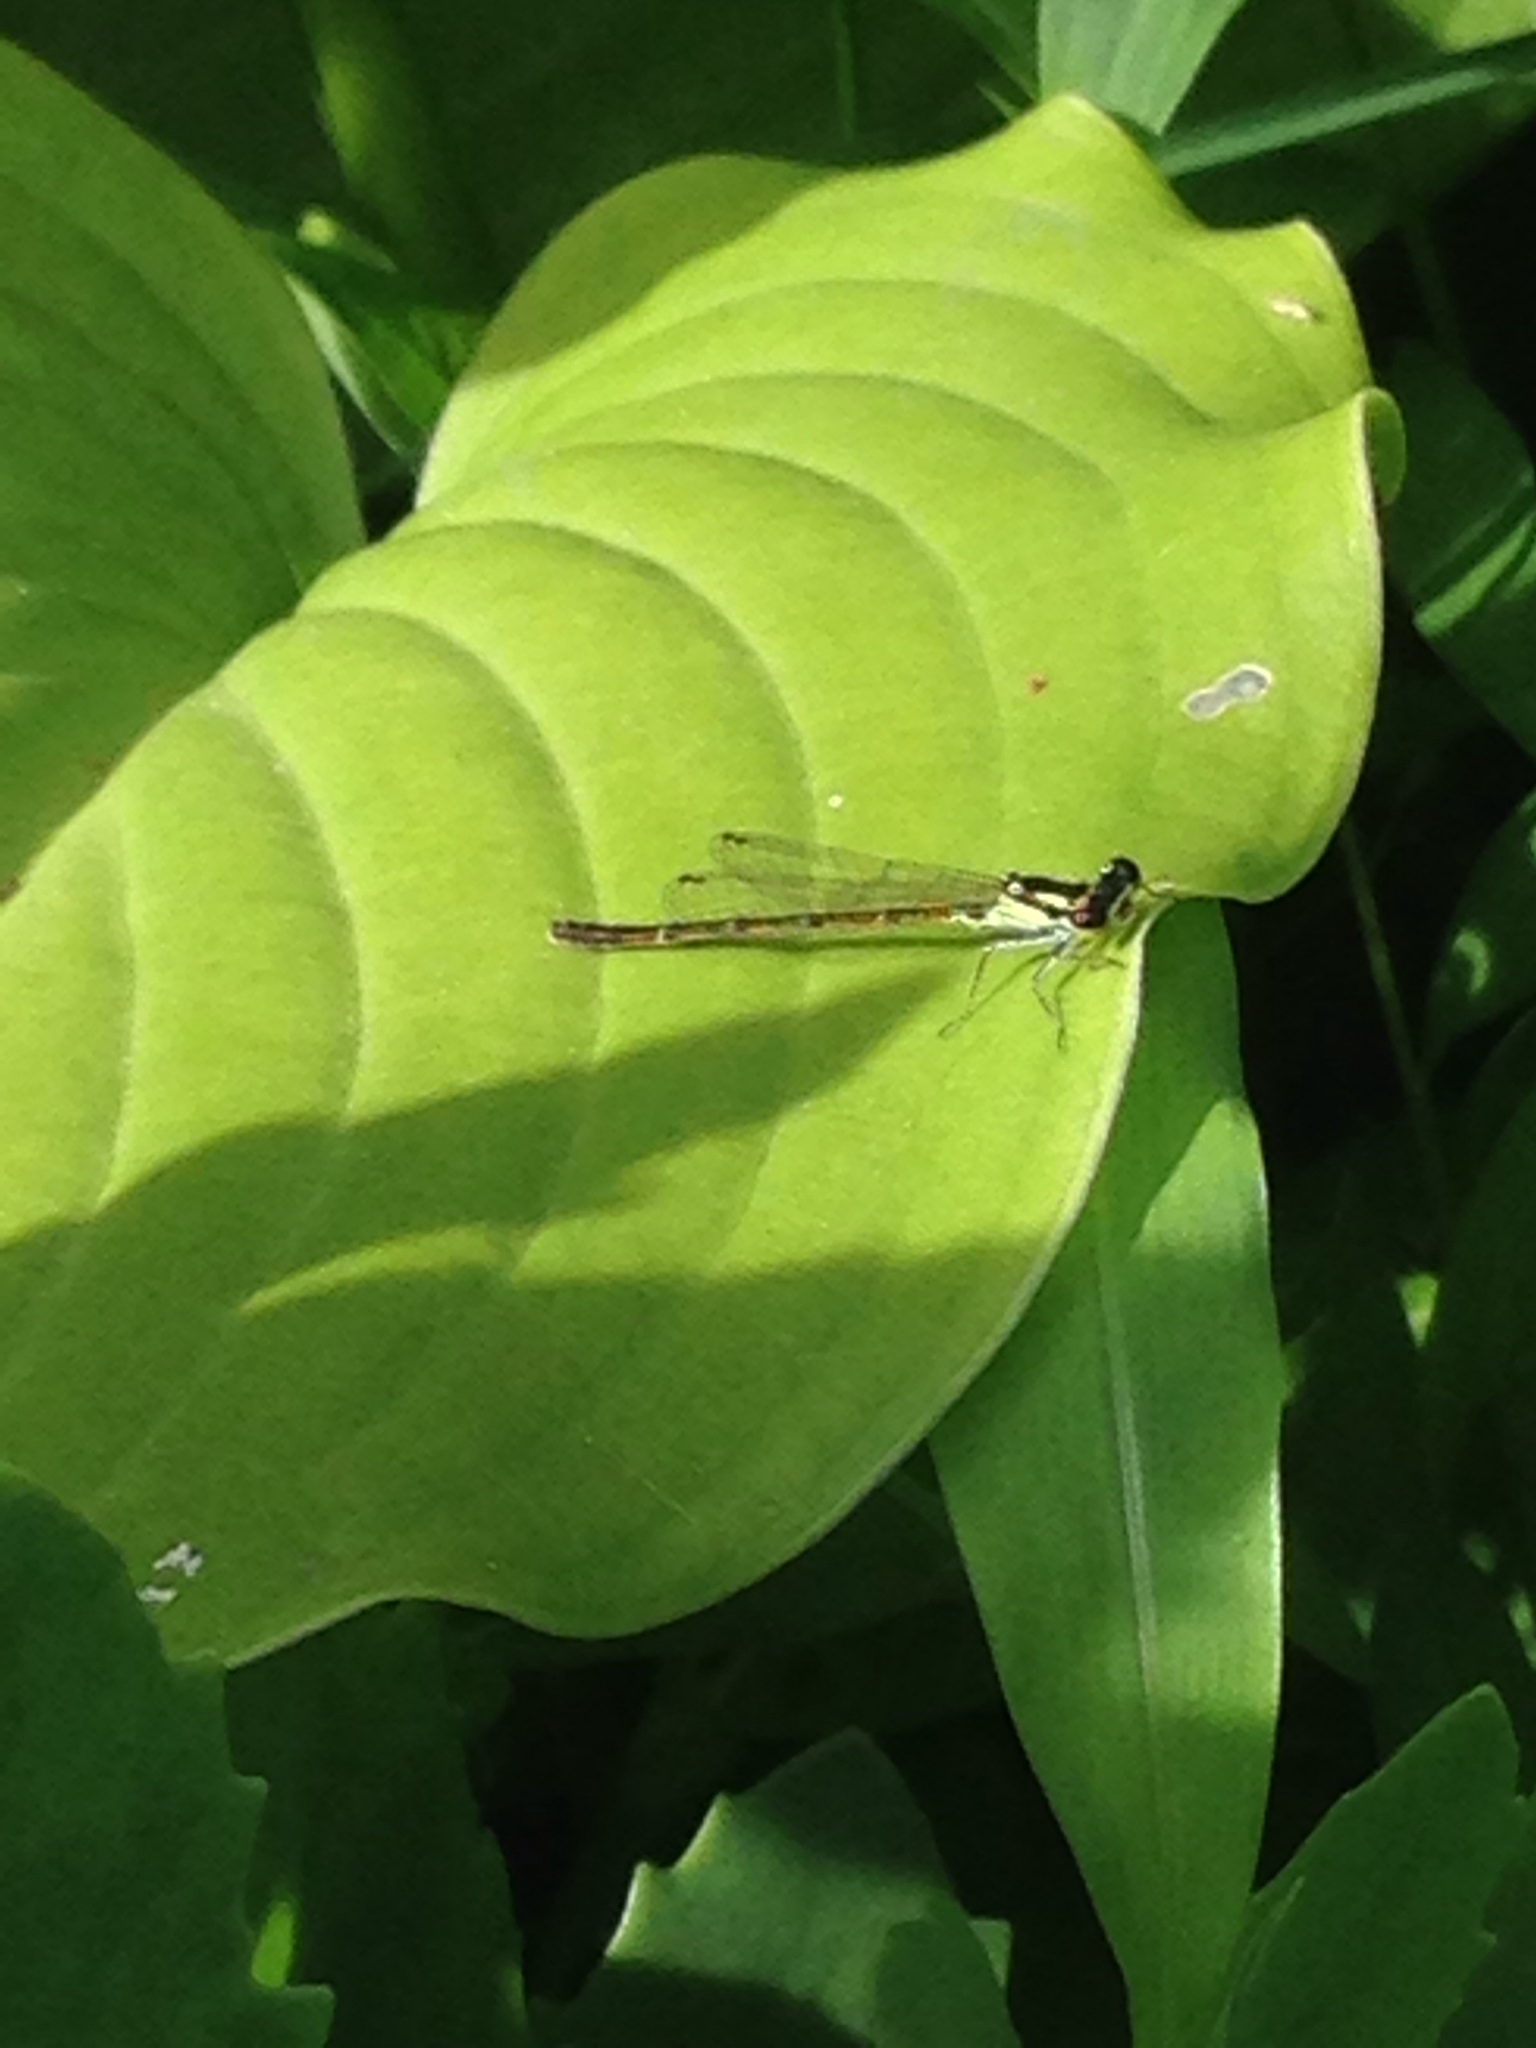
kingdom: Animalia
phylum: Arthropoda
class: Insecta
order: Odonata
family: Coenagrionidae
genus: Ischnura
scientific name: Ischnura posita
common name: Fragile forktail
